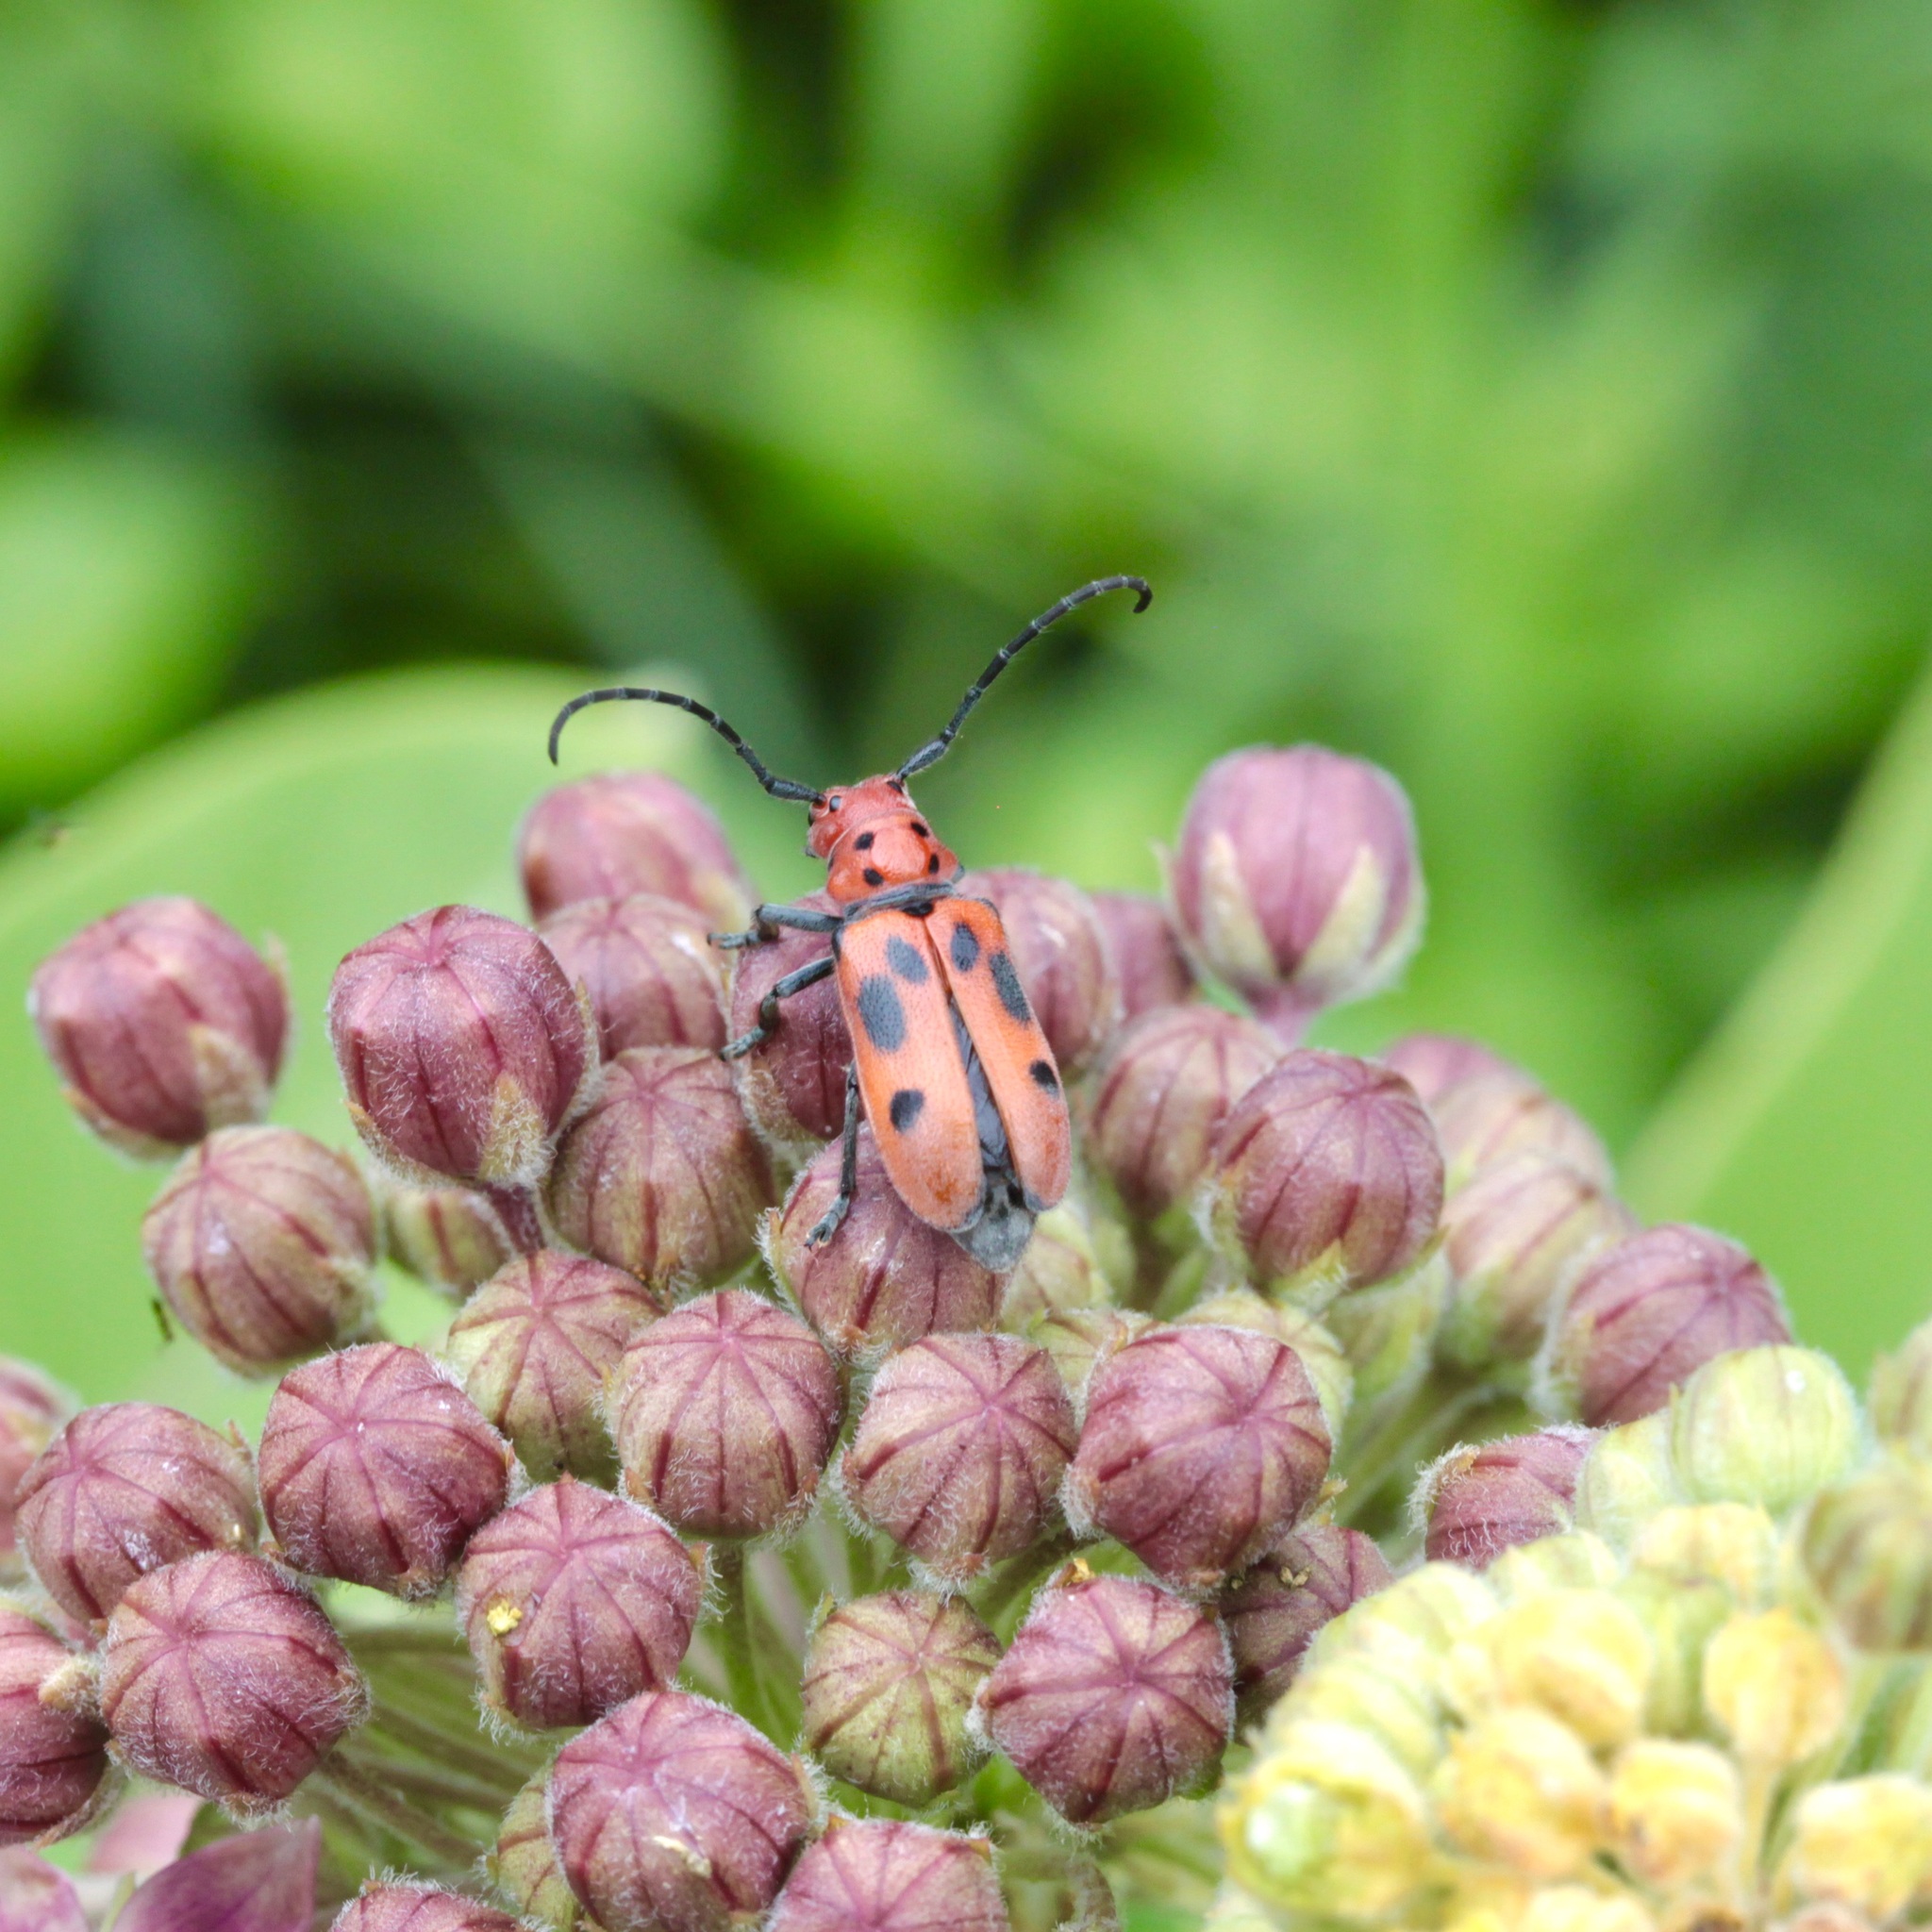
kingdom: Animalia
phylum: Arthropoda
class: Insecta
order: Coleoptera
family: Cerambycidae
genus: Tetraopes
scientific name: Tetraopes tetrophthalmus
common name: Red milkweed beetle
